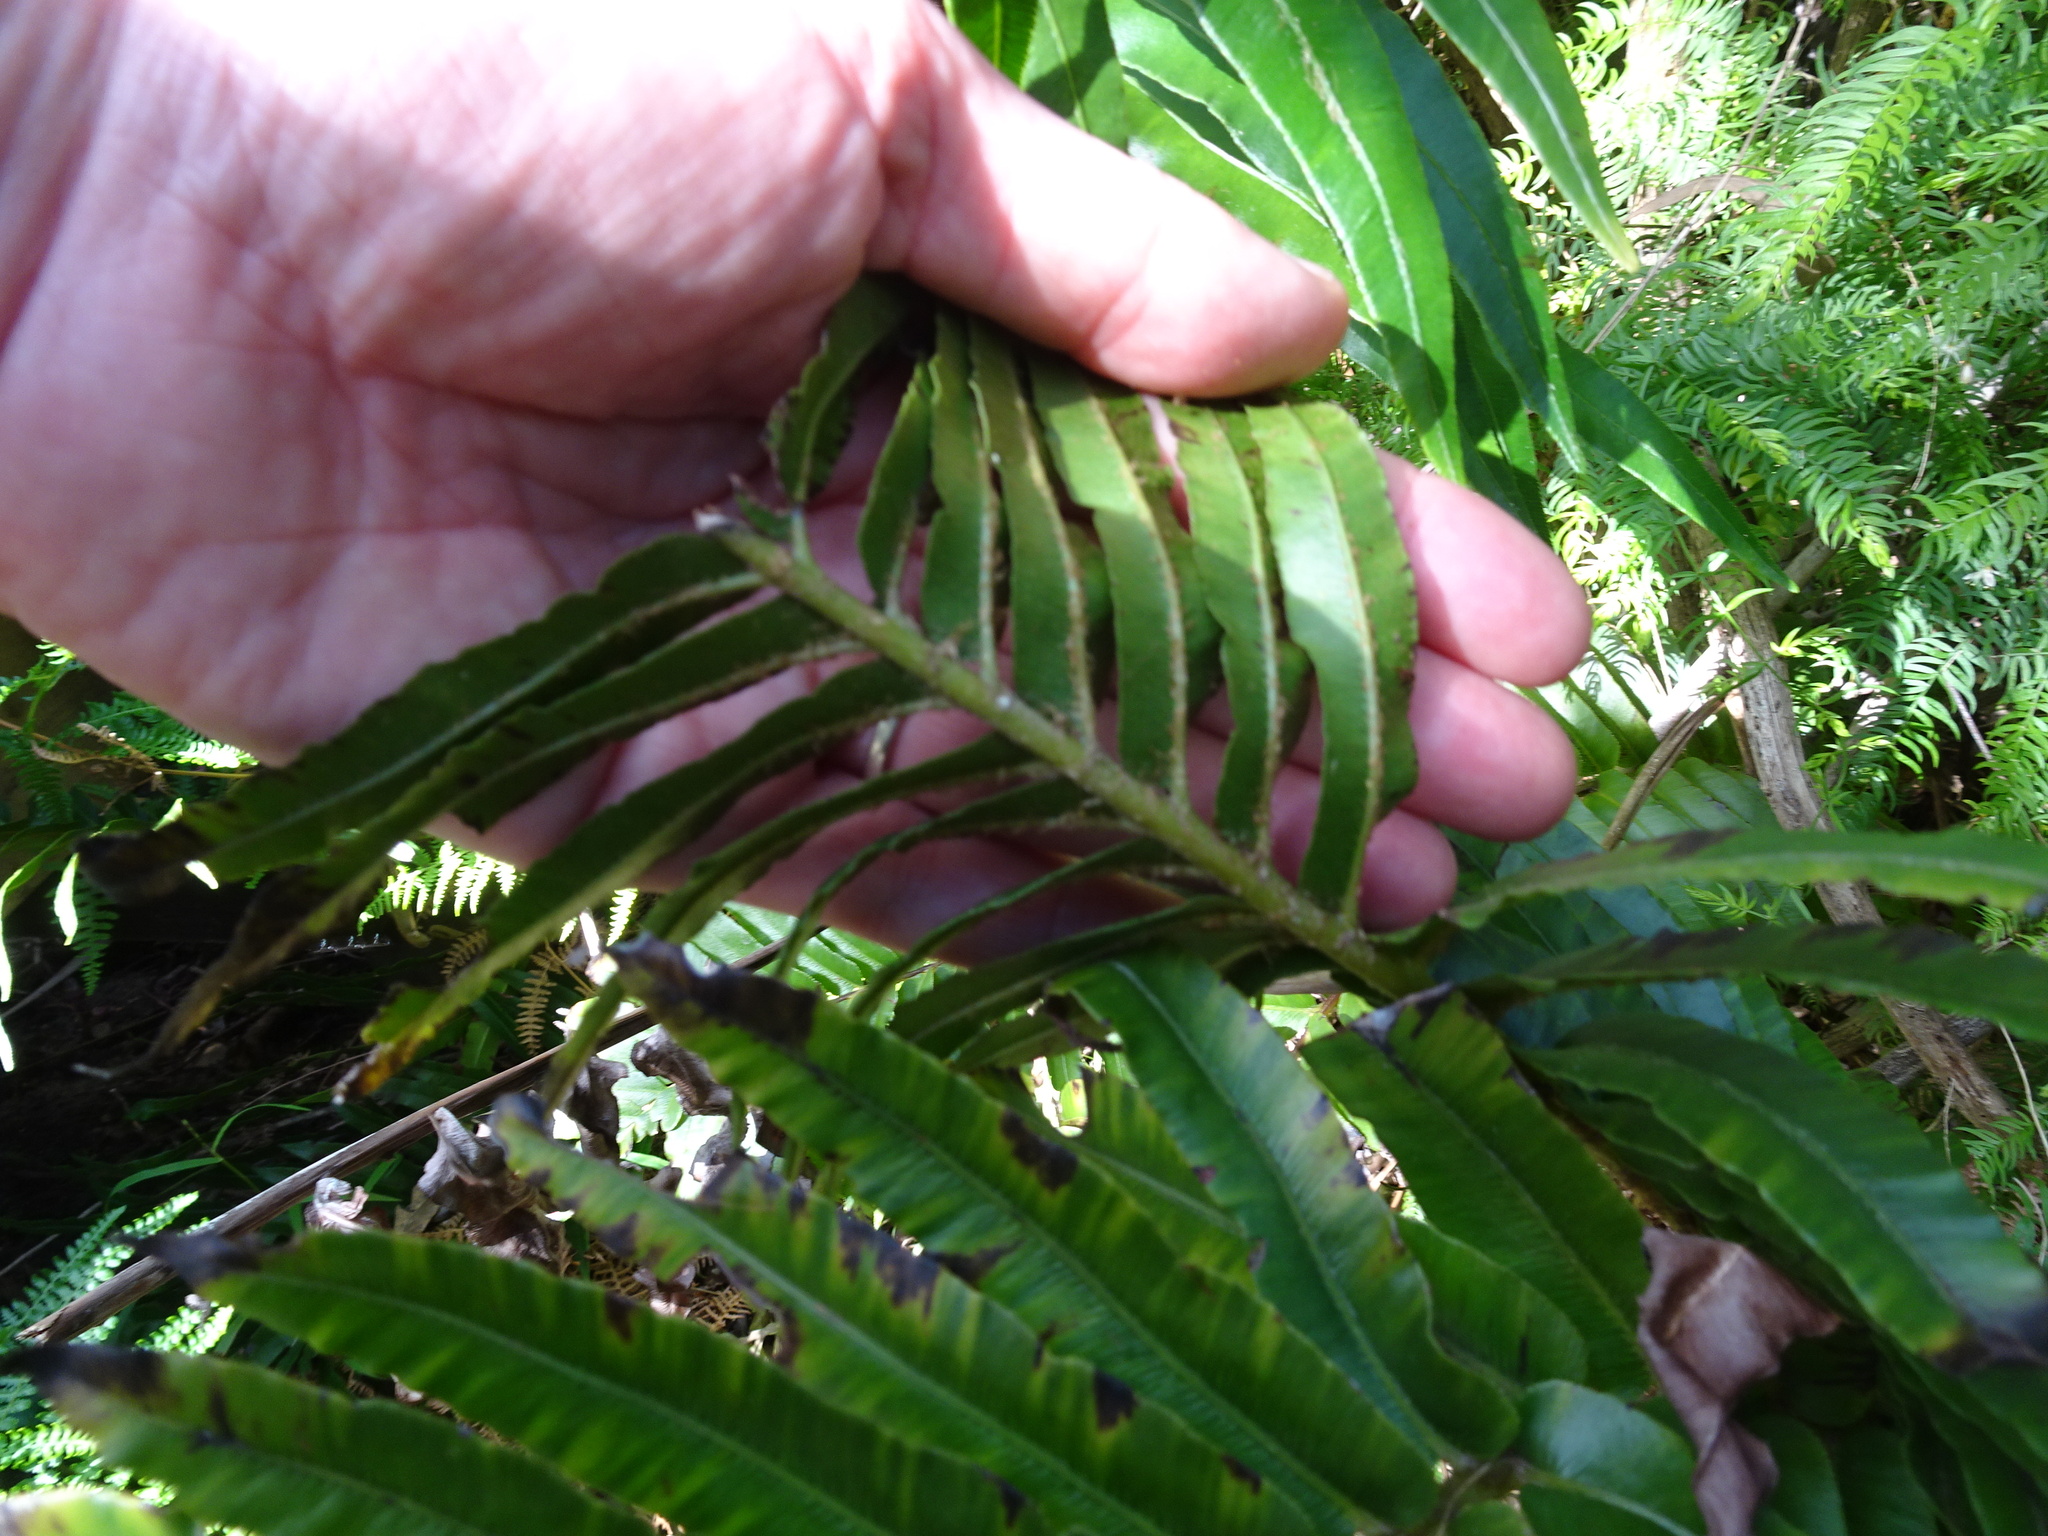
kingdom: Plantae
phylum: Tracheophyta
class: Polypodiopsida
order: Polypodiales
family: Blechnaceae
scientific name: Blechnaceae
